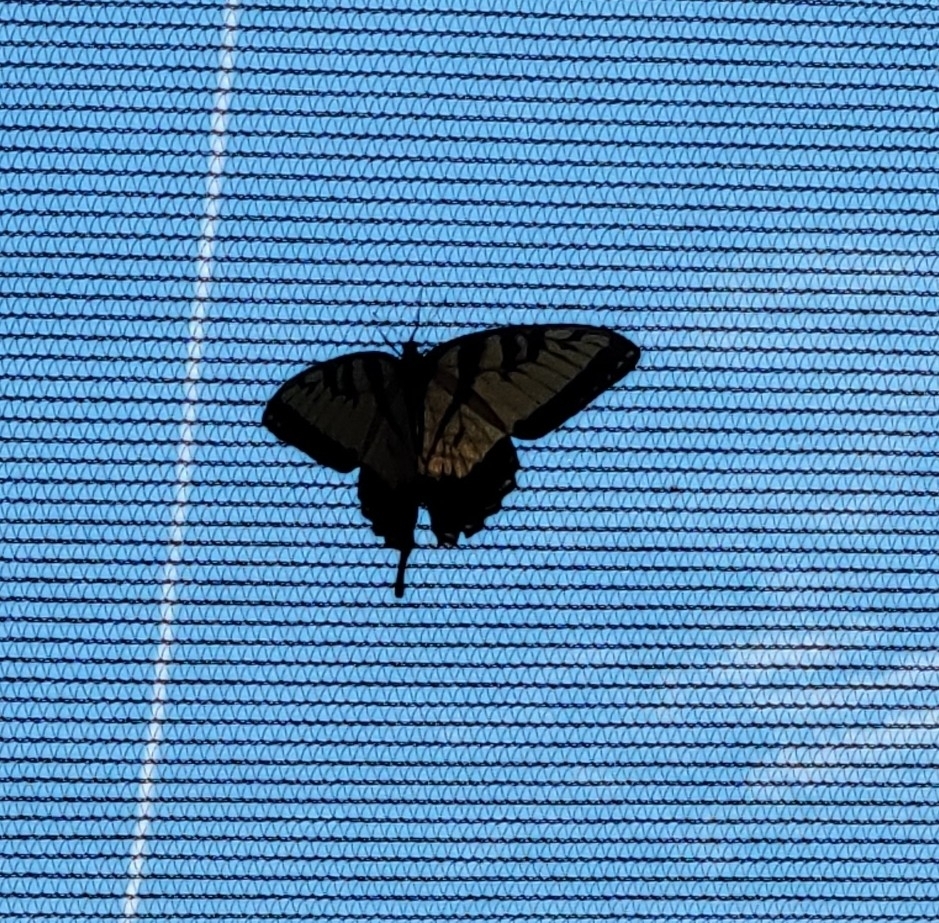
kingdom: Animalia
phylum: Arthropoda
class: Insecta
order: Lepidoptera
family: Papilionidae
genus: Papilio
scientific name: Papilio glaucus
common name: Tiger swallowtail
